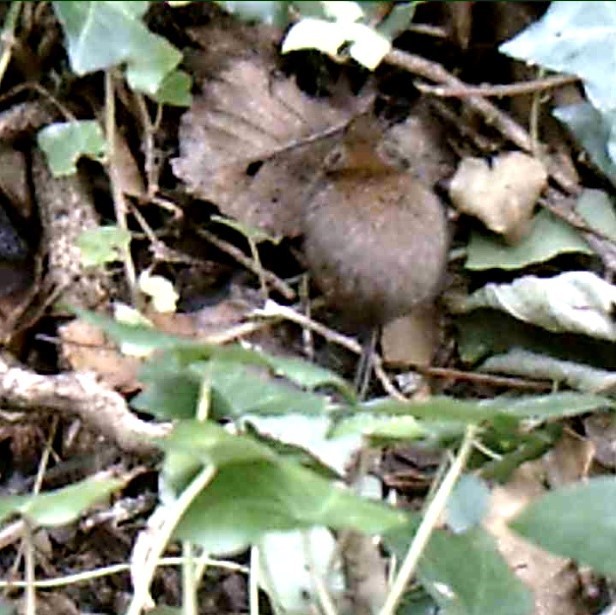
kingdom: Animalia
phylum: Chordata
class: Mammalia
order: Rodentia
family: Muridae
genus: Apodemus
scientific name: Apodemus sylvaticus
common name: Wood mouse
